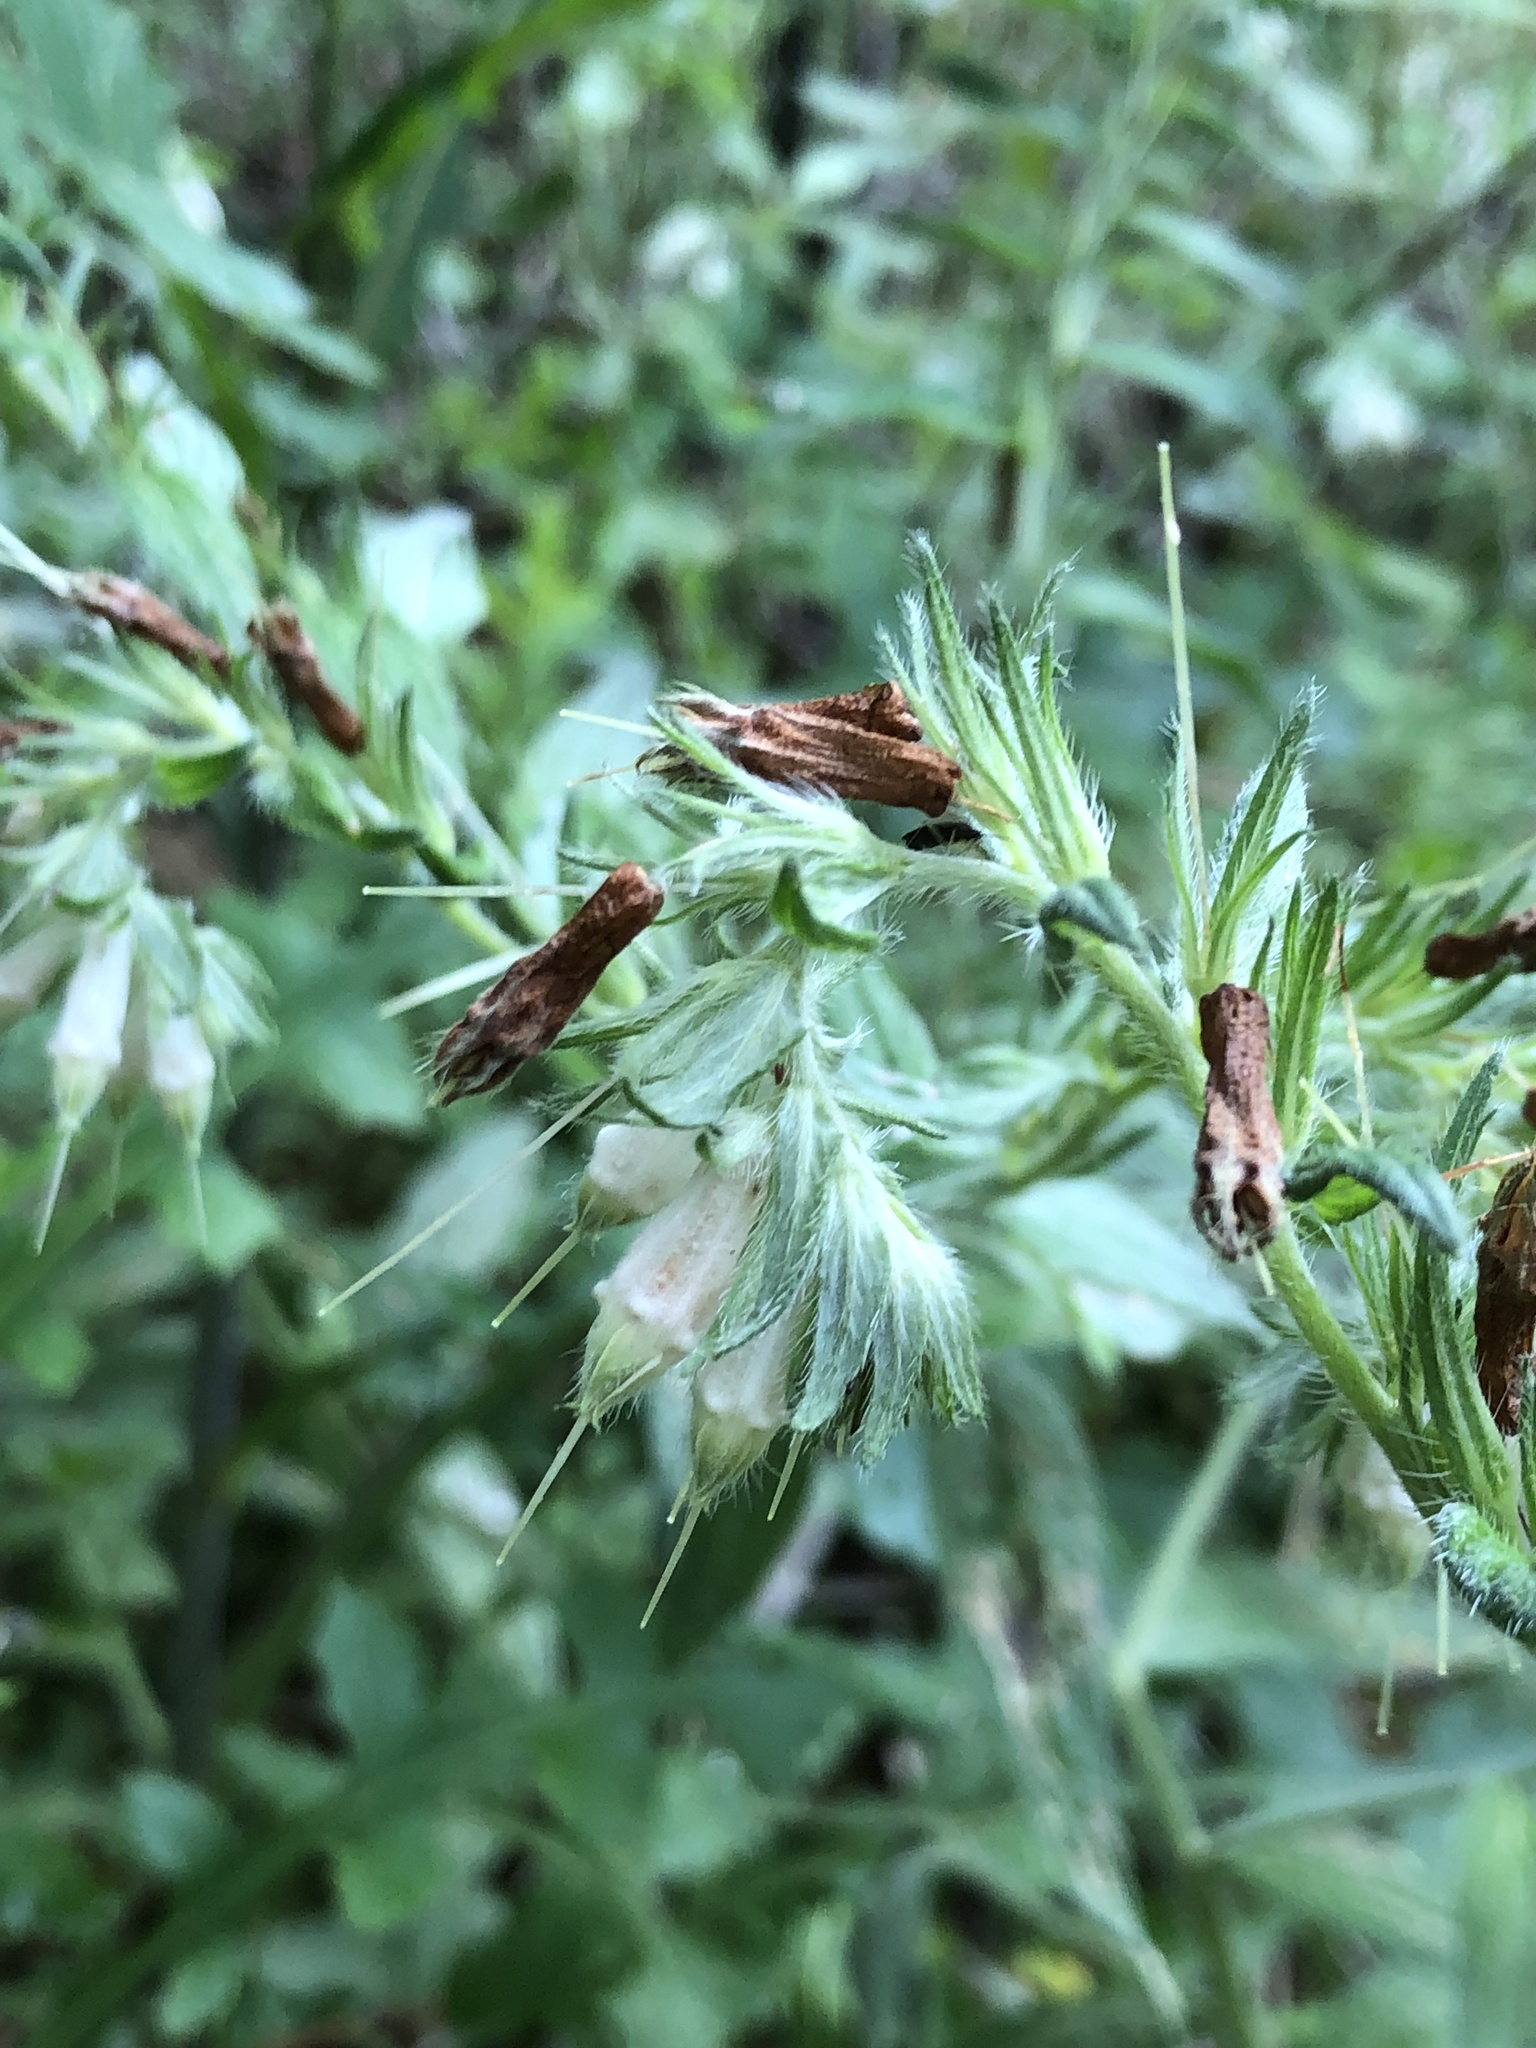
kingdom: Plantae
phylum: Tracheophyta
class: Magnoliopsida
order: Boraginales
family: Boraginaceae
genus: Lithospermum
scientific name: Lithospermum caroliniense
